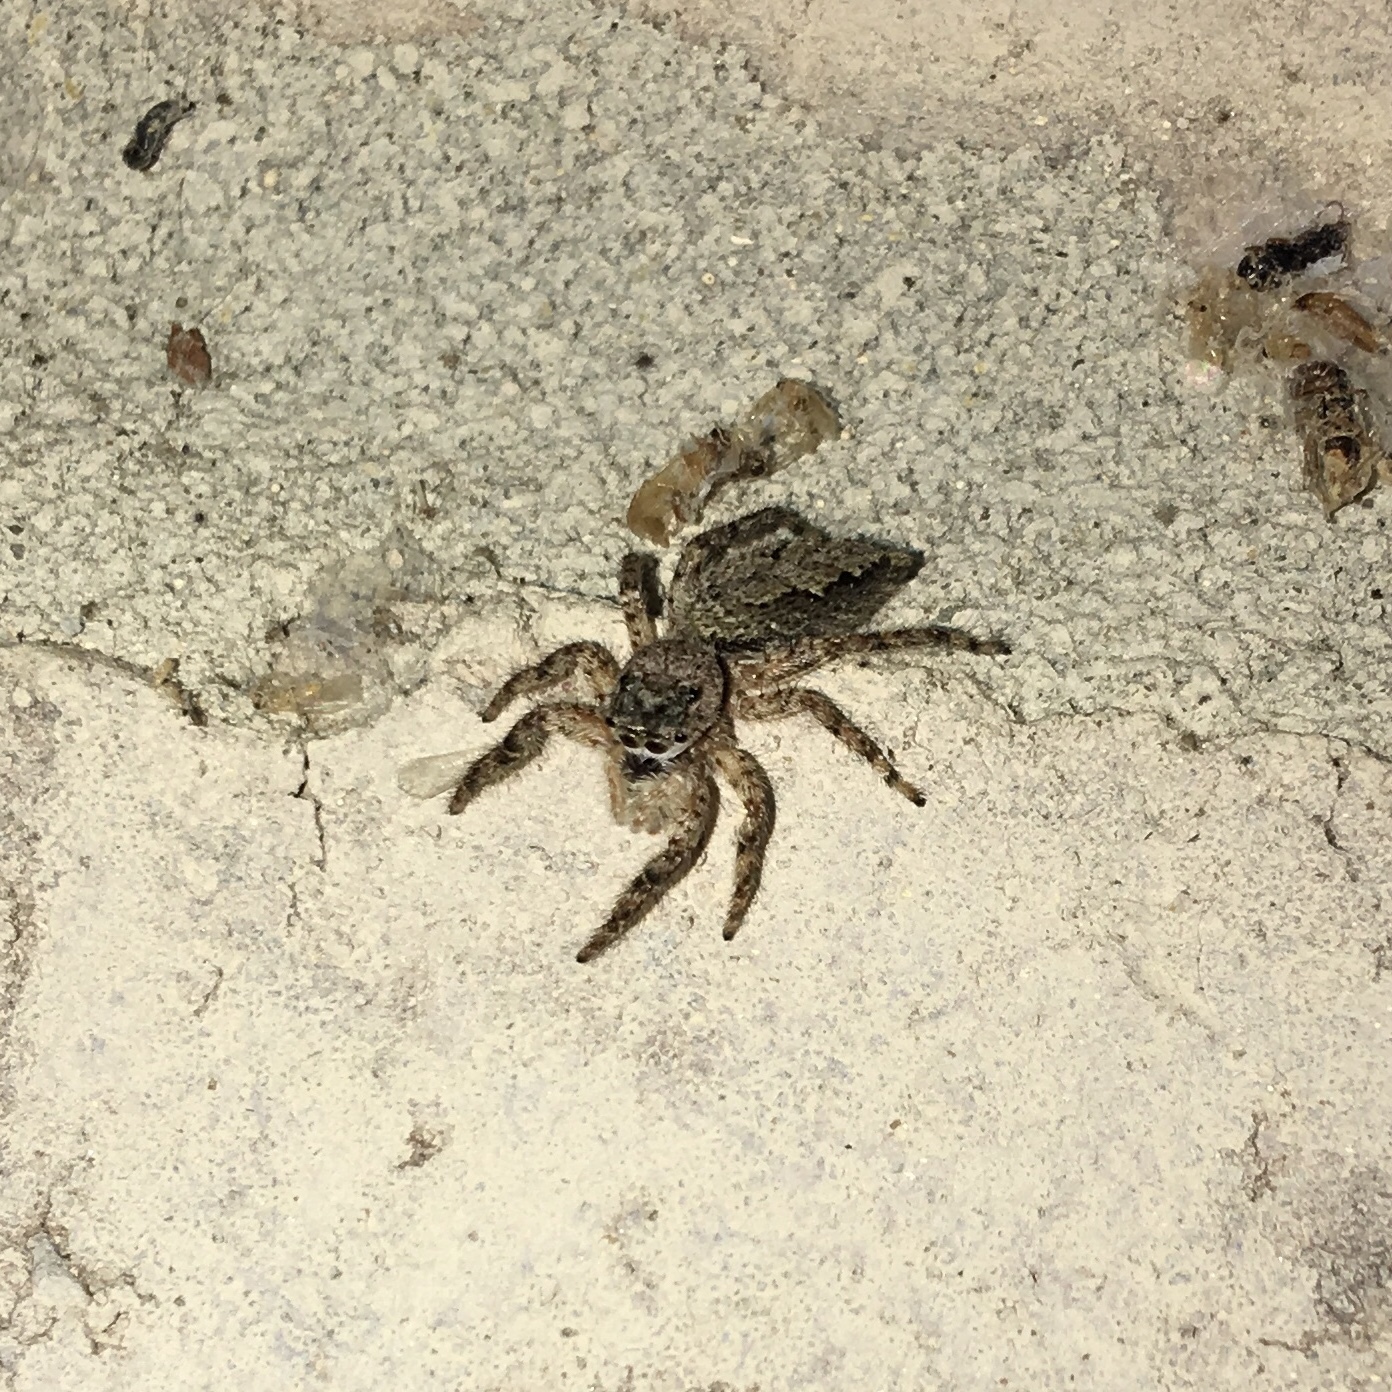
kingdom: Animalia
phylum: Arthropoda
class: Arachnida
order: Araneae
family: Salticidae
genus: Platycryptus
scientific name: Platycryptus undatus
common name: Tan jumping spider
